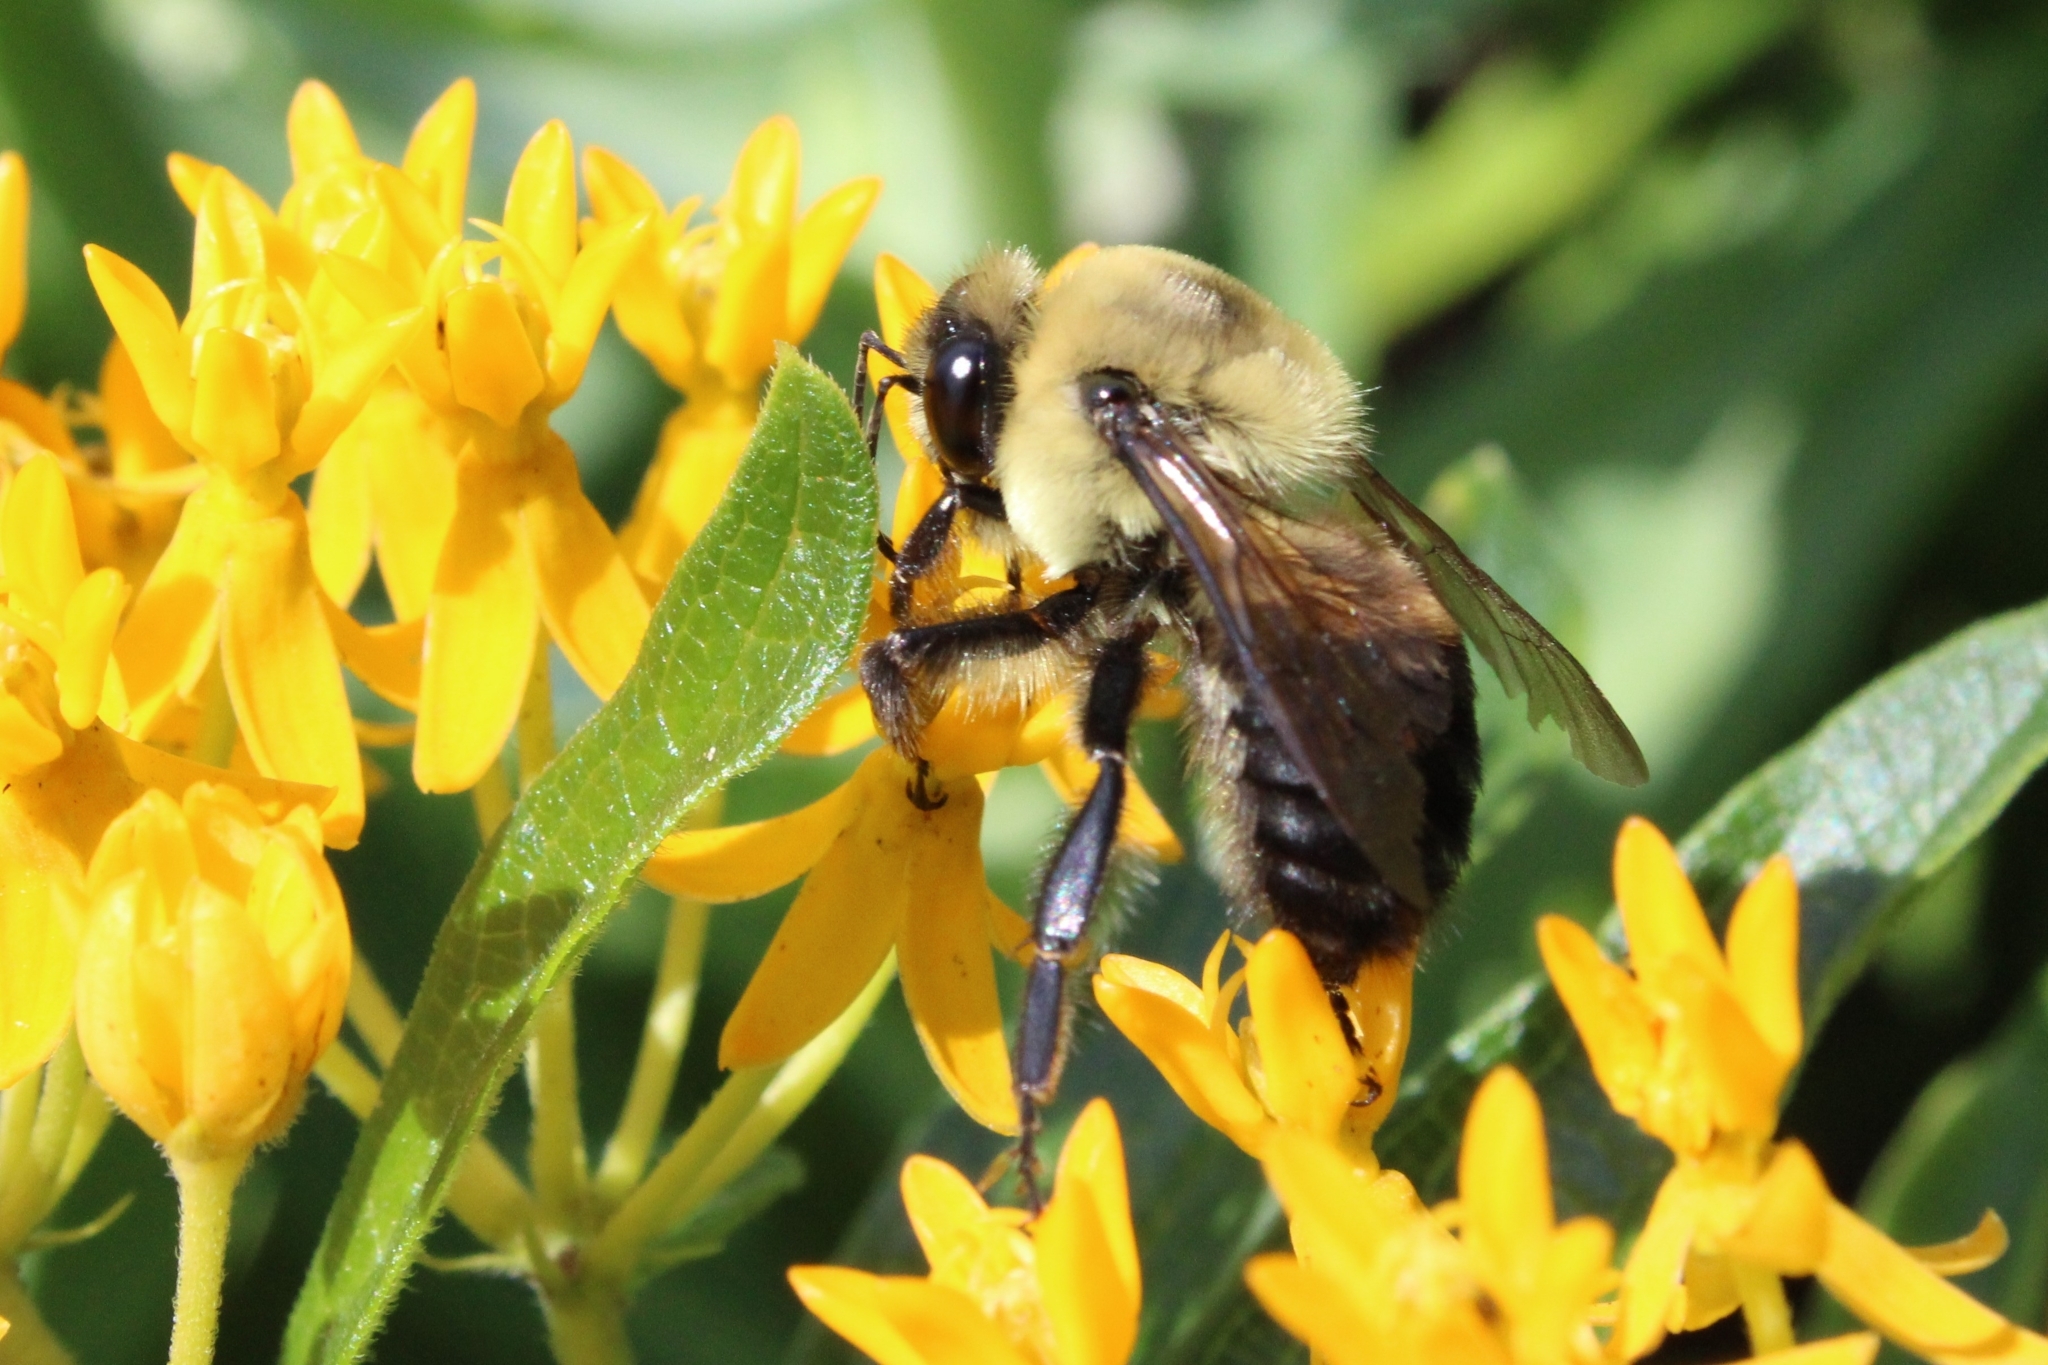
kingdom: Animalia
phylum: Arthropoda
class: Insecta
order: Hymenoptera
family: Apidae
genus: Bombus
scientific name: Bombus griseocollis
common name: Brown-belted bumble bee
